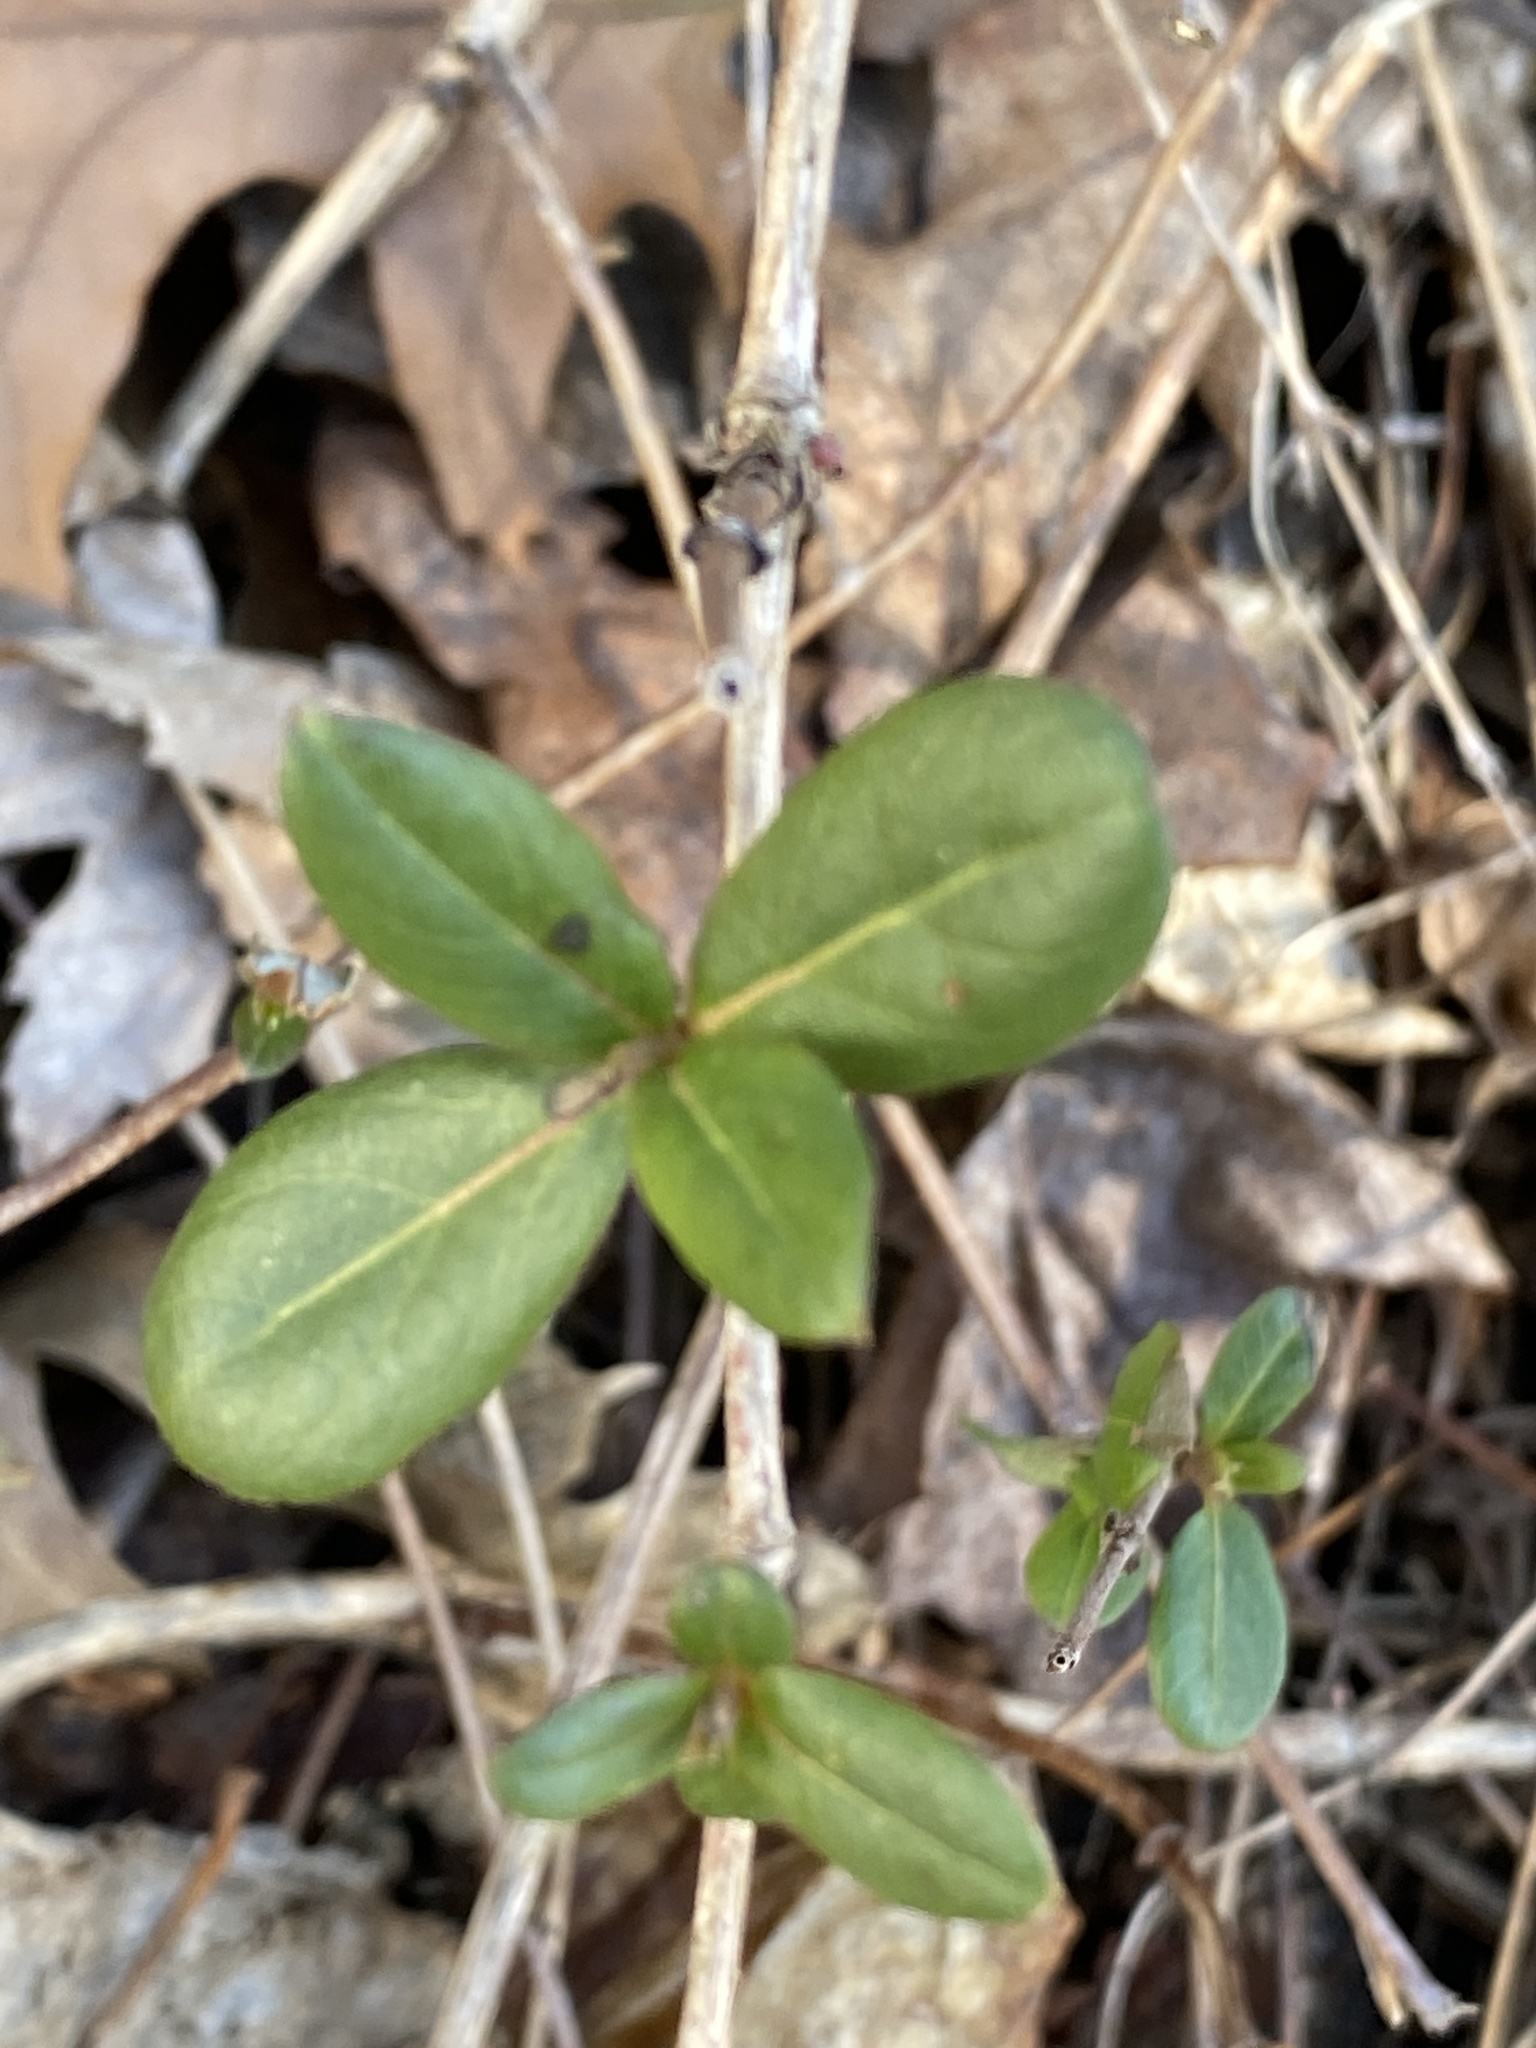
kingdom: Plantae
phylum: Tracheophyta
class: Magnoliopsida
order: Dipsacales
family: Caprifoliaceae
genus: Lonicera
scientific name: Lonicera japonica
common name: Japanese honeysuckle
